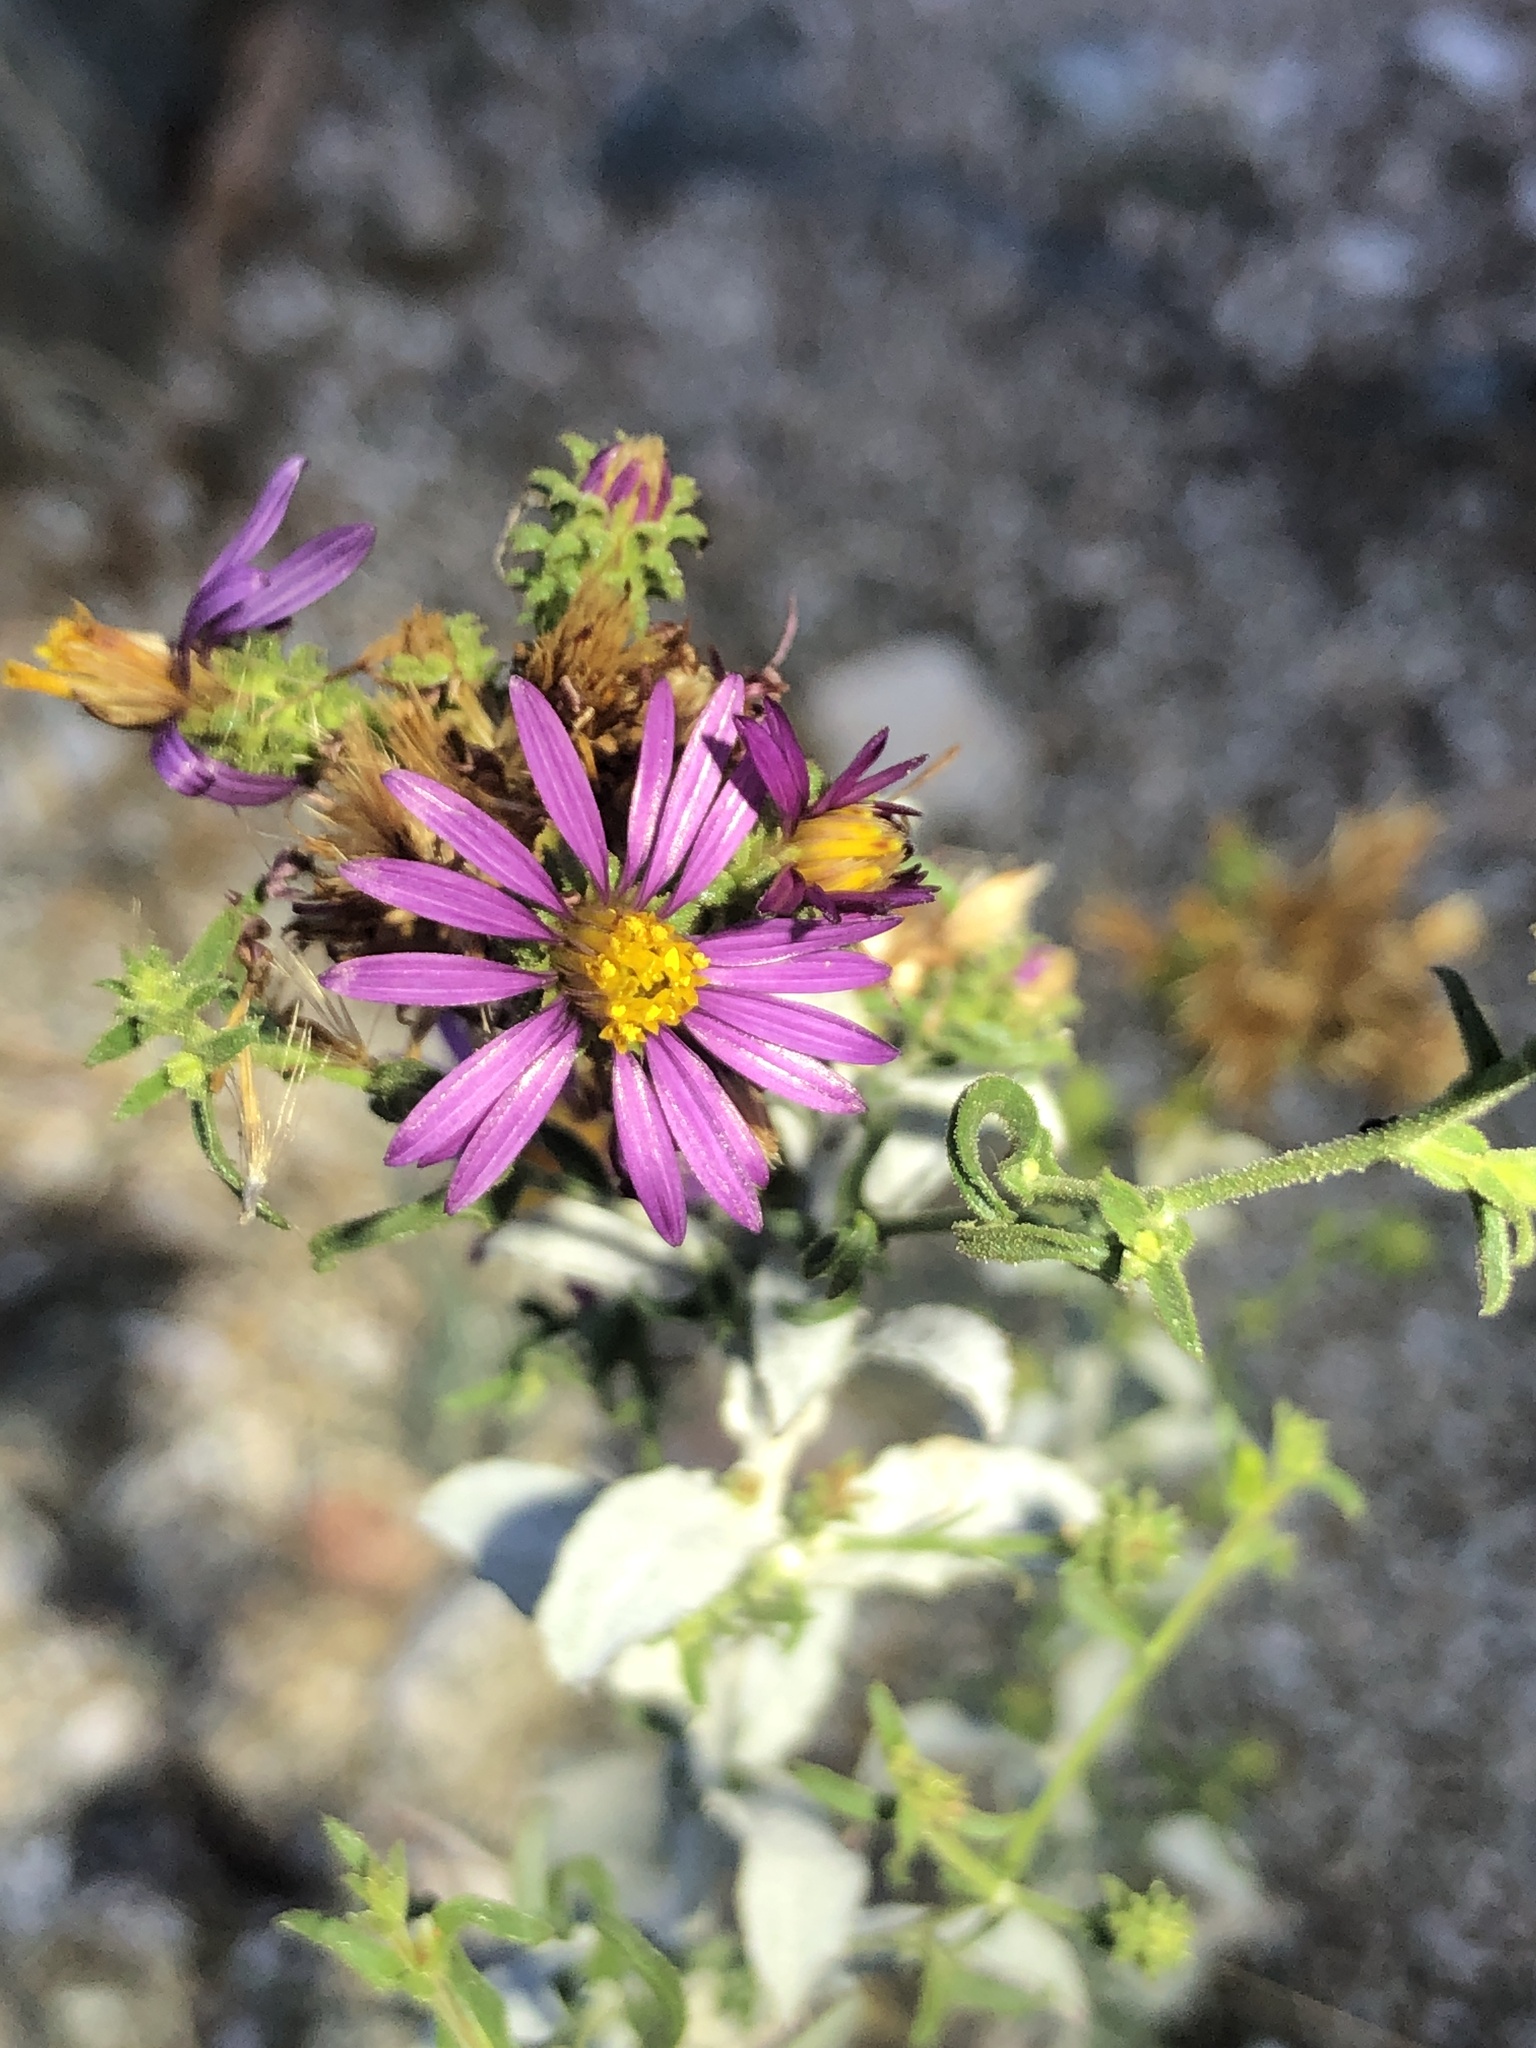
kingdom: Plantae
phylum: Tracheophyta
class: Magnoliopsida
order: Asterales
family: Asteraceae
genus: Dieteria
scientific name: Dieteria canescens
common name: Hoary-aster
